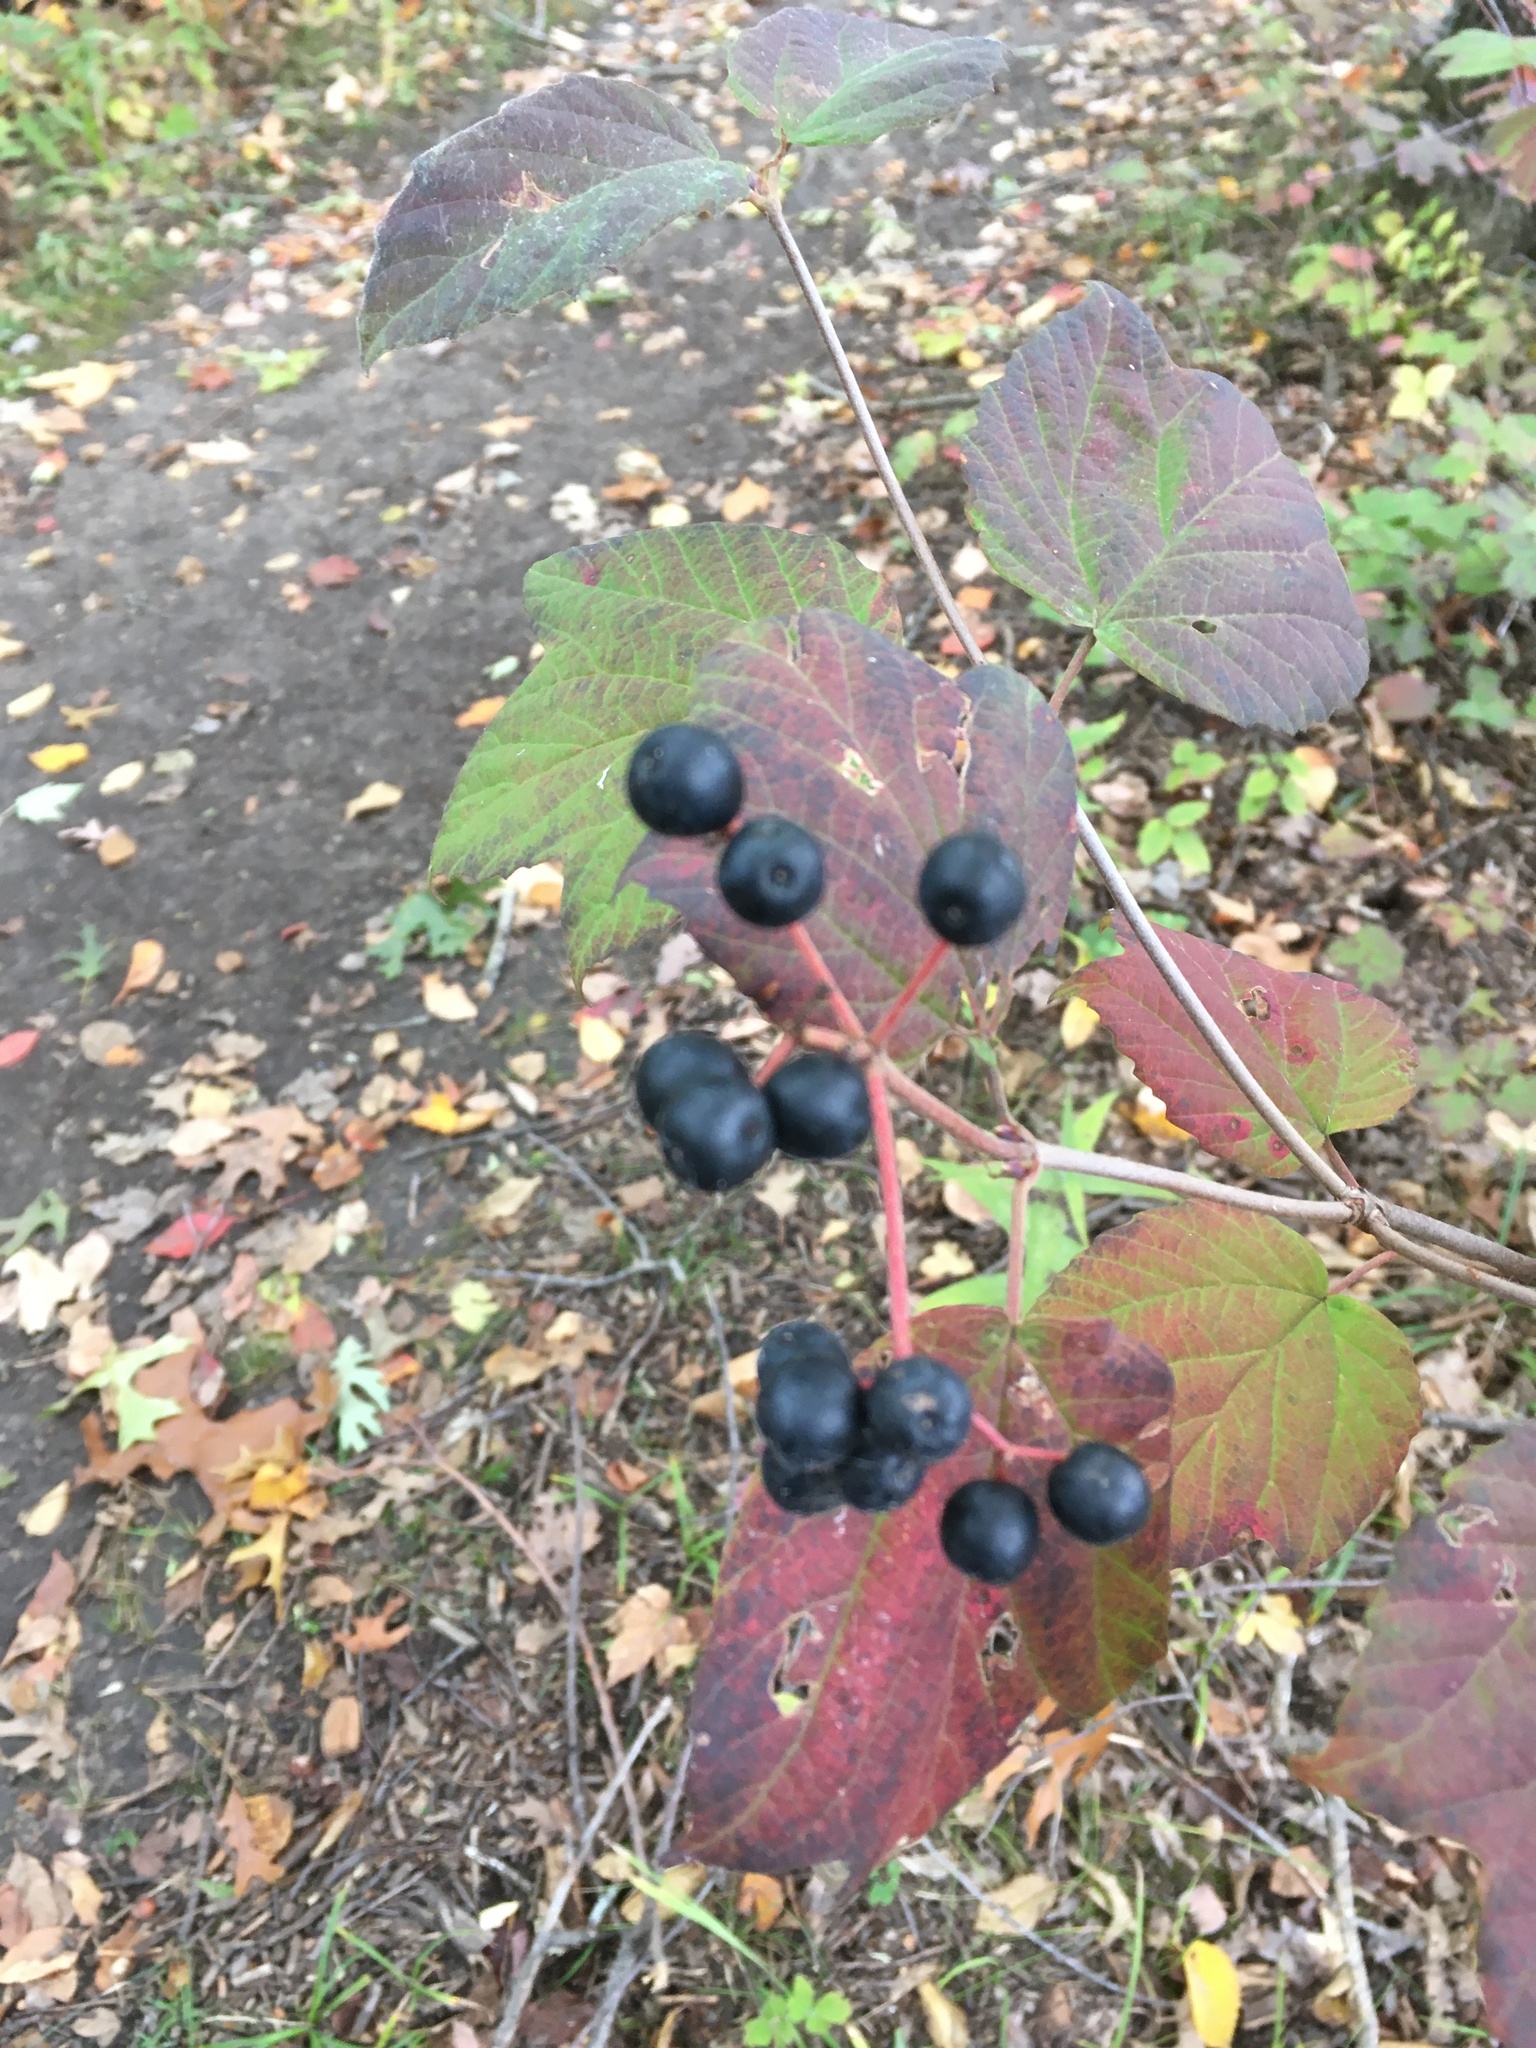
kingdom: Plantae
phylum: Tracheophyta
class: Magnoliopsida
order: Dipsacales
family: Viburnaceae
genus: Viburnum
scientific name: Viburnum acerifolium
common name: Dockmackie
